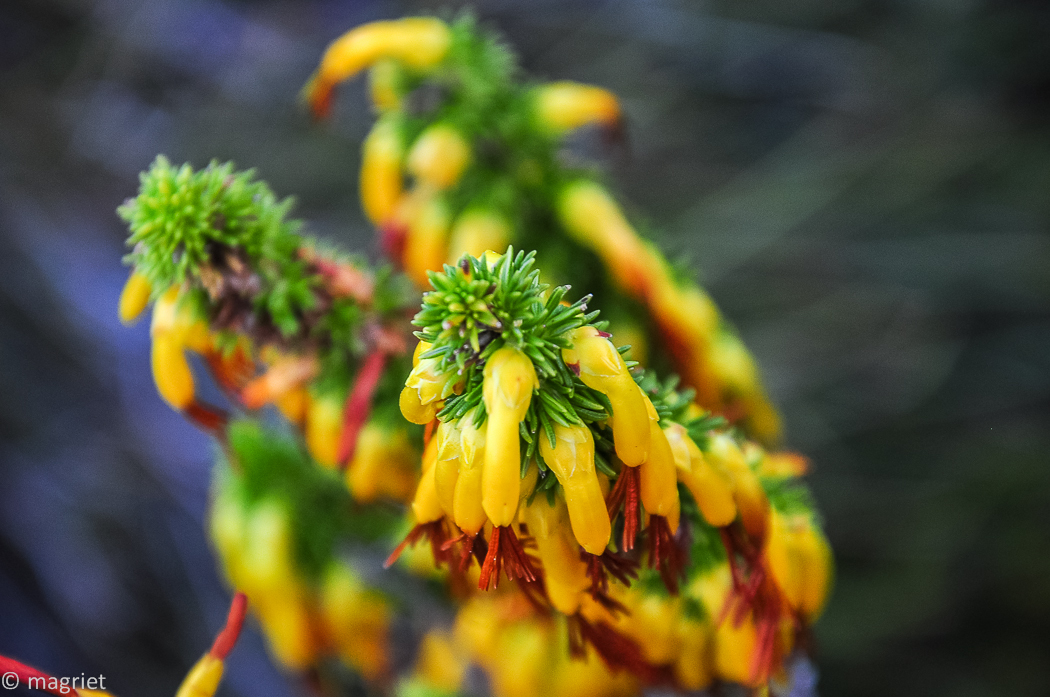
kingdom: Plantae
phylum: Tracheophyta
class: Magnoliopsida
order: Ericales
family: Ericaceae
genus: Erica
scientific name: Erica coccinea
